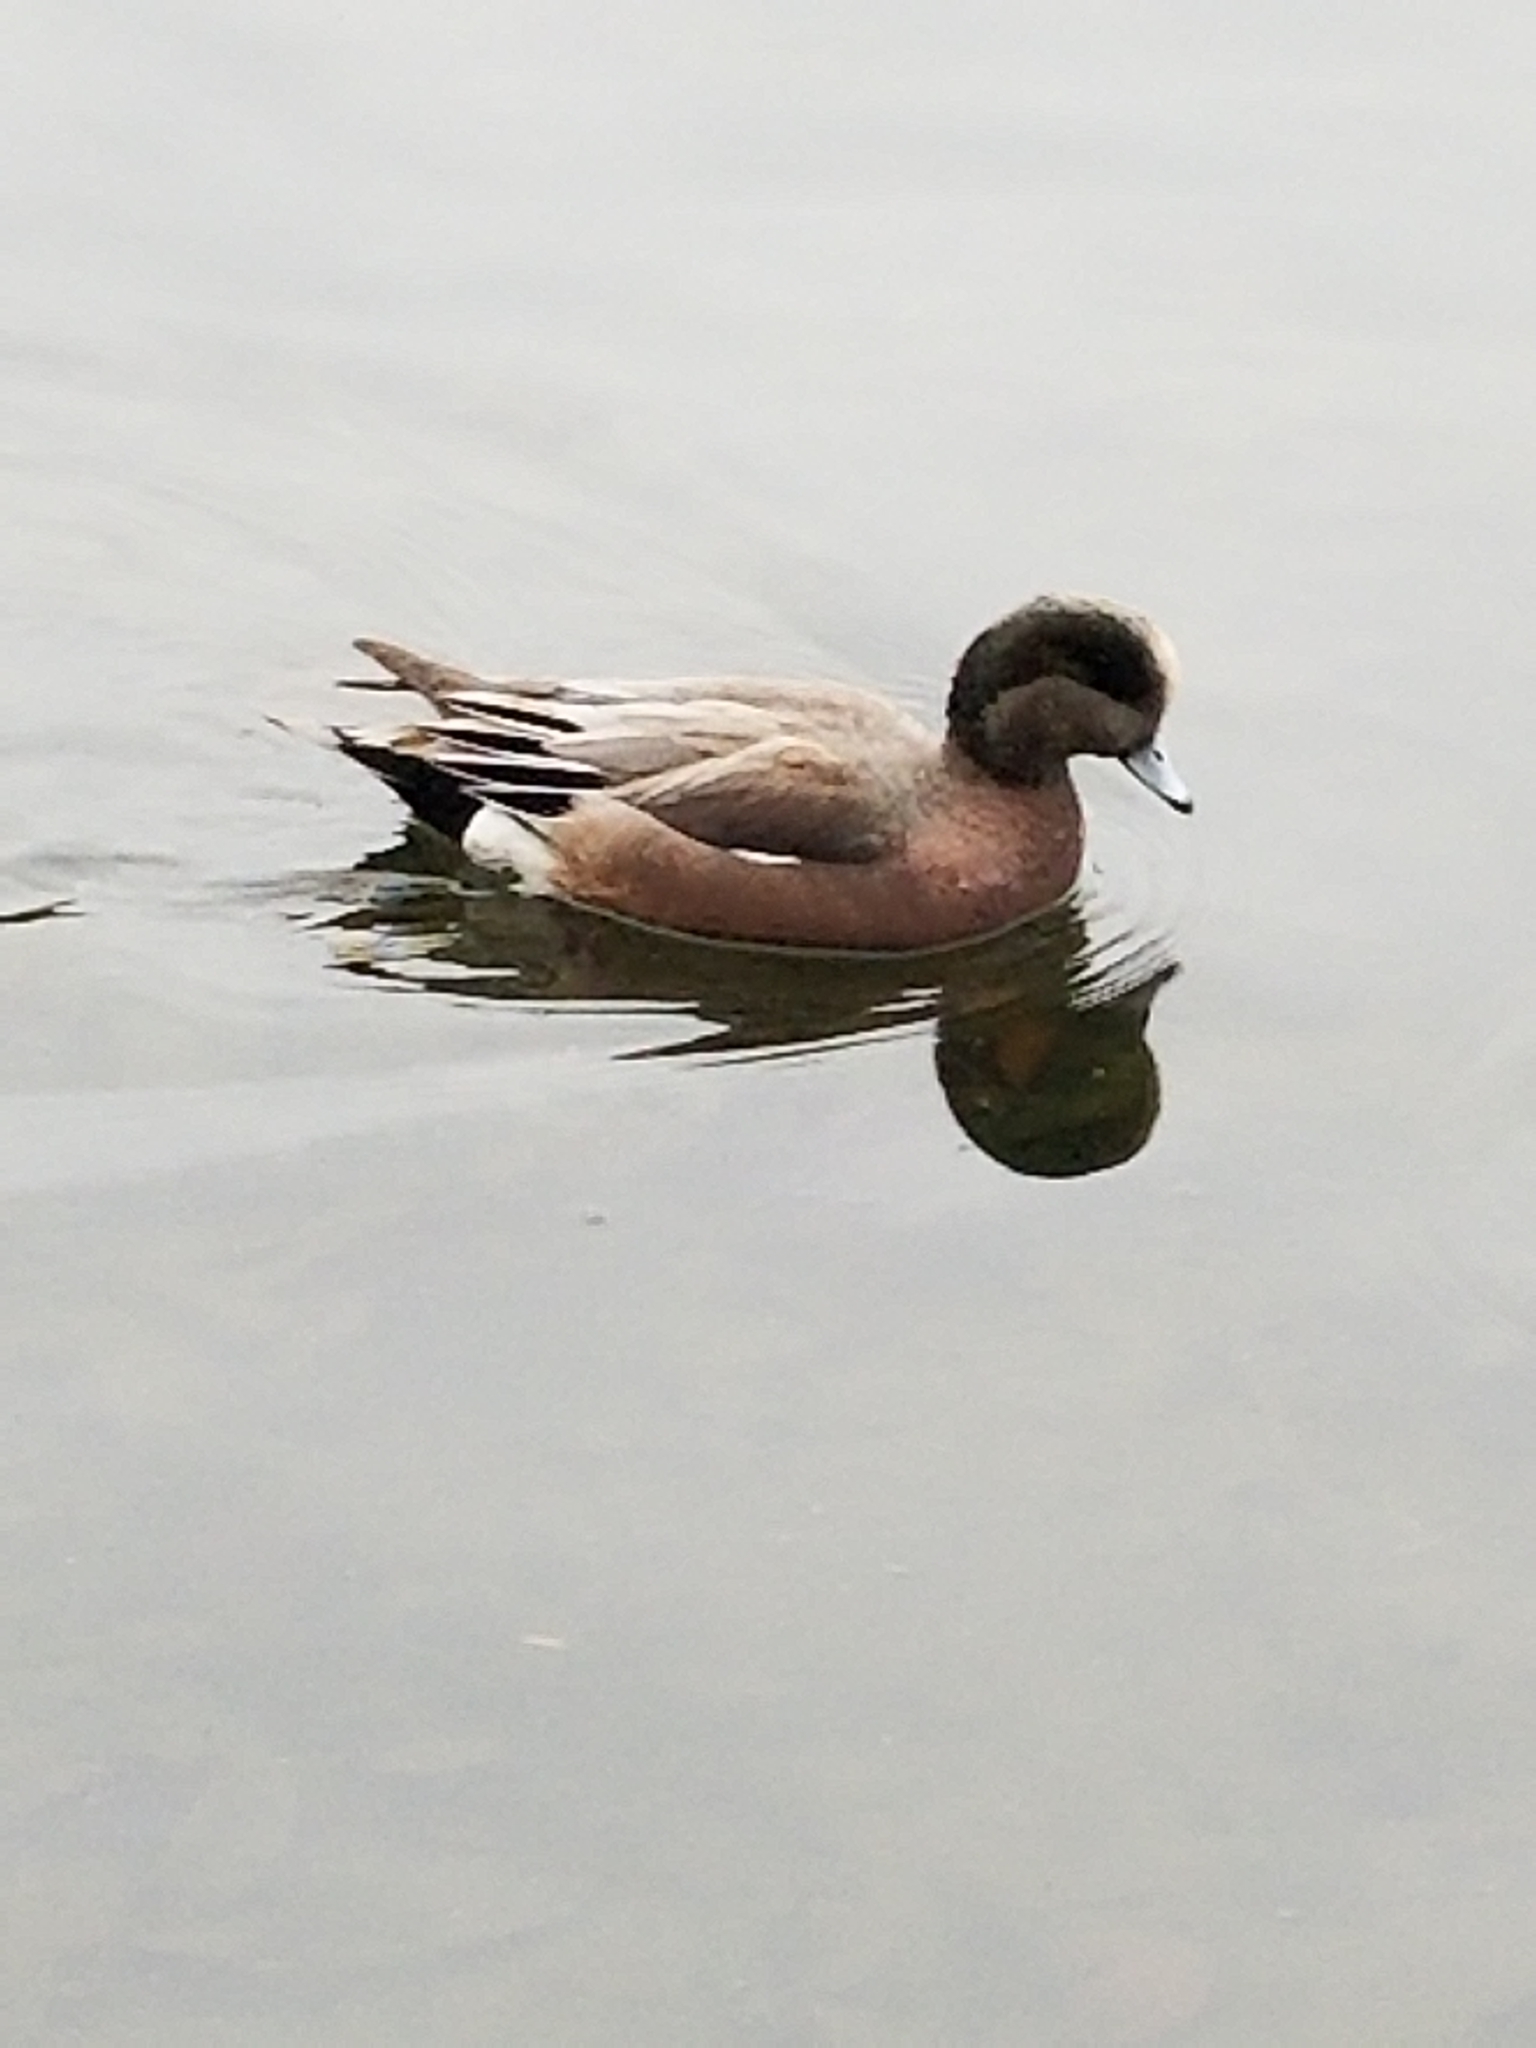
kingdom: Animalia
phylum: Chordata
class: Aves
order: Anseriformes
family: Anatidae
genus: Mareca
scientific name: Mareca americana
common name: American wigeon
